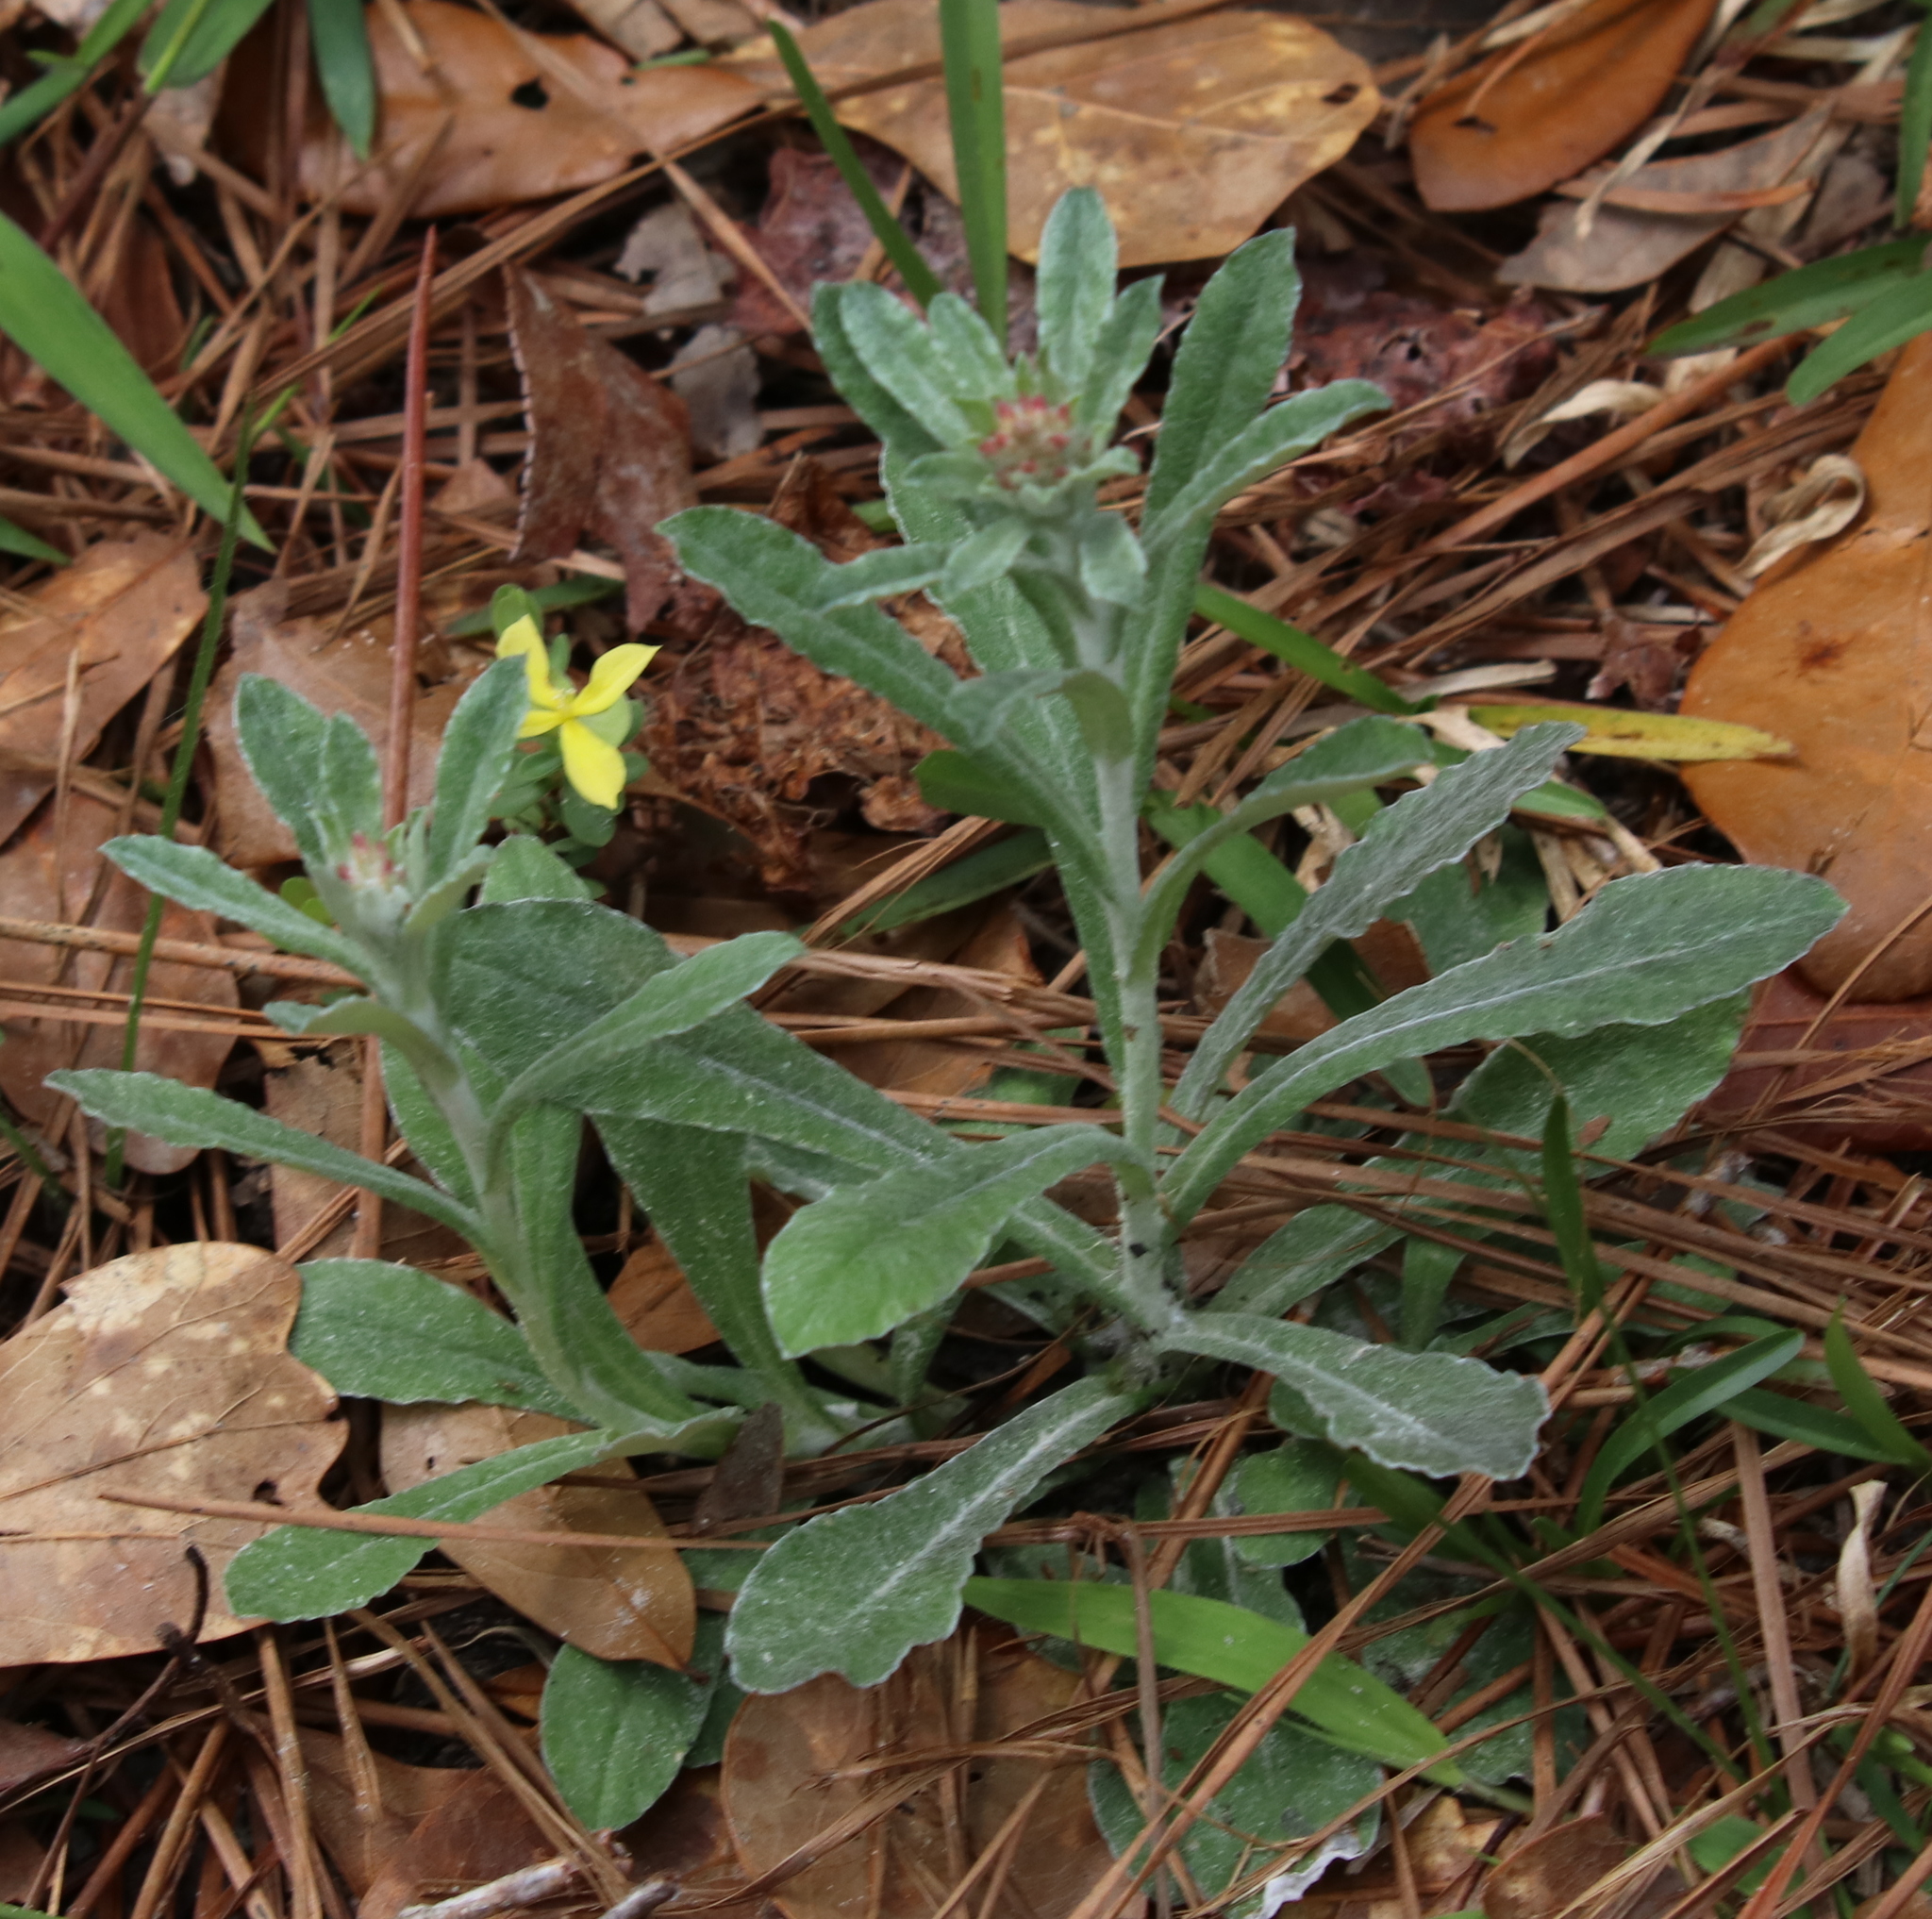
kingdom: Plantae
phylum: Tracheophyta
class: Magnoliopsida
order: Asterales
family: Asteraceae
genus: Gamochaeta
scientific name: Gamochaeta purpurea
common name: Purple cudweed
